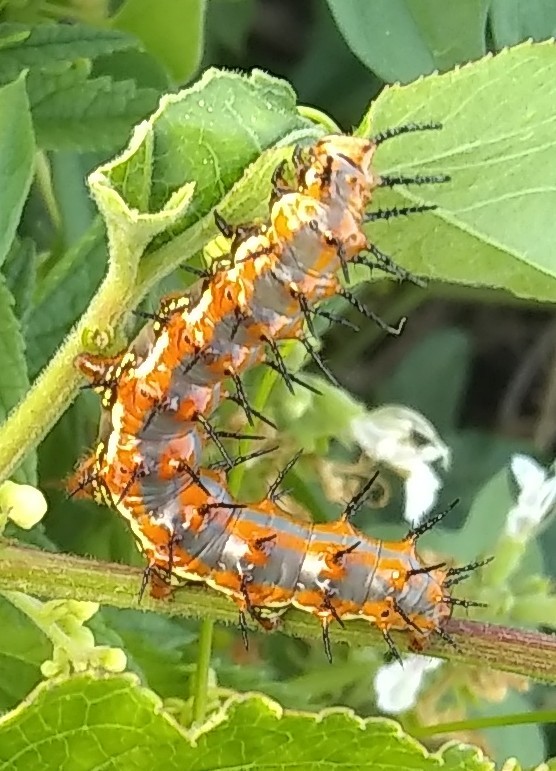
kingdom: Animalia
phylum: Arthropoda
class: Insecta
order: Lepidoptera
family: Nymphalidae
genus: Dione
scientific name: Dione vanillae
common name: Gulf fritillary
